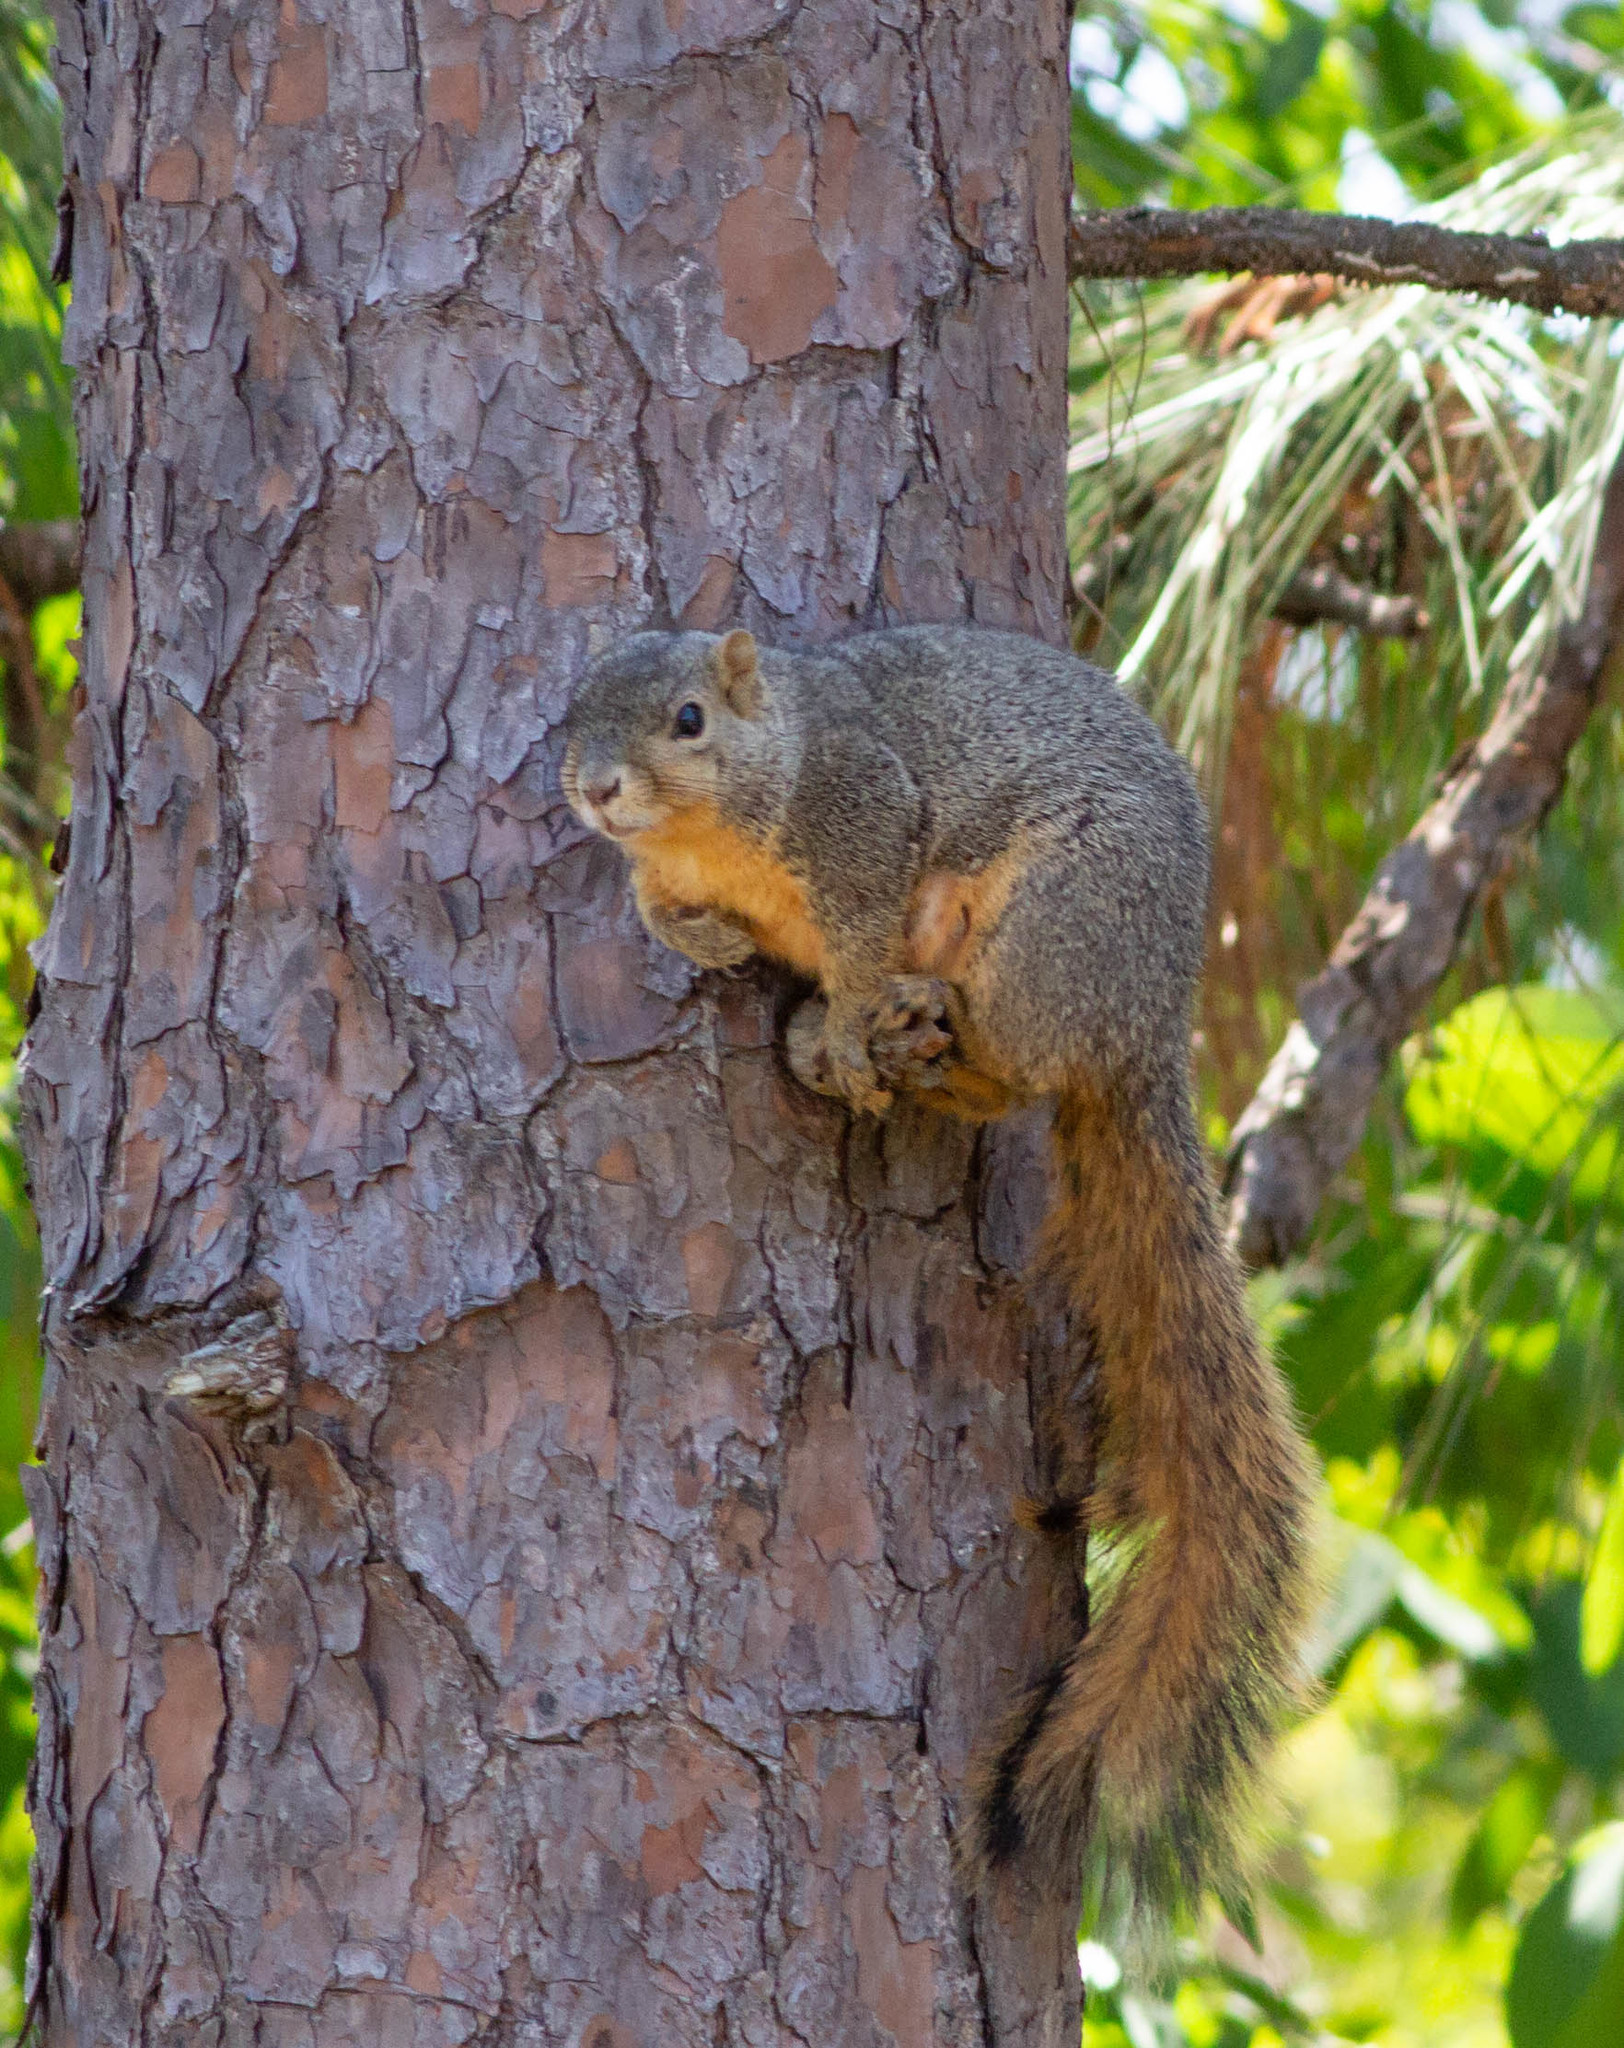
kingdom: Animalia
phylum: Chordata
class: Mammalia
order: Rodentia
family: Sciuridae
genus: Sciurus
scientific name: Sciurus niger
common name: Fox squirrel
